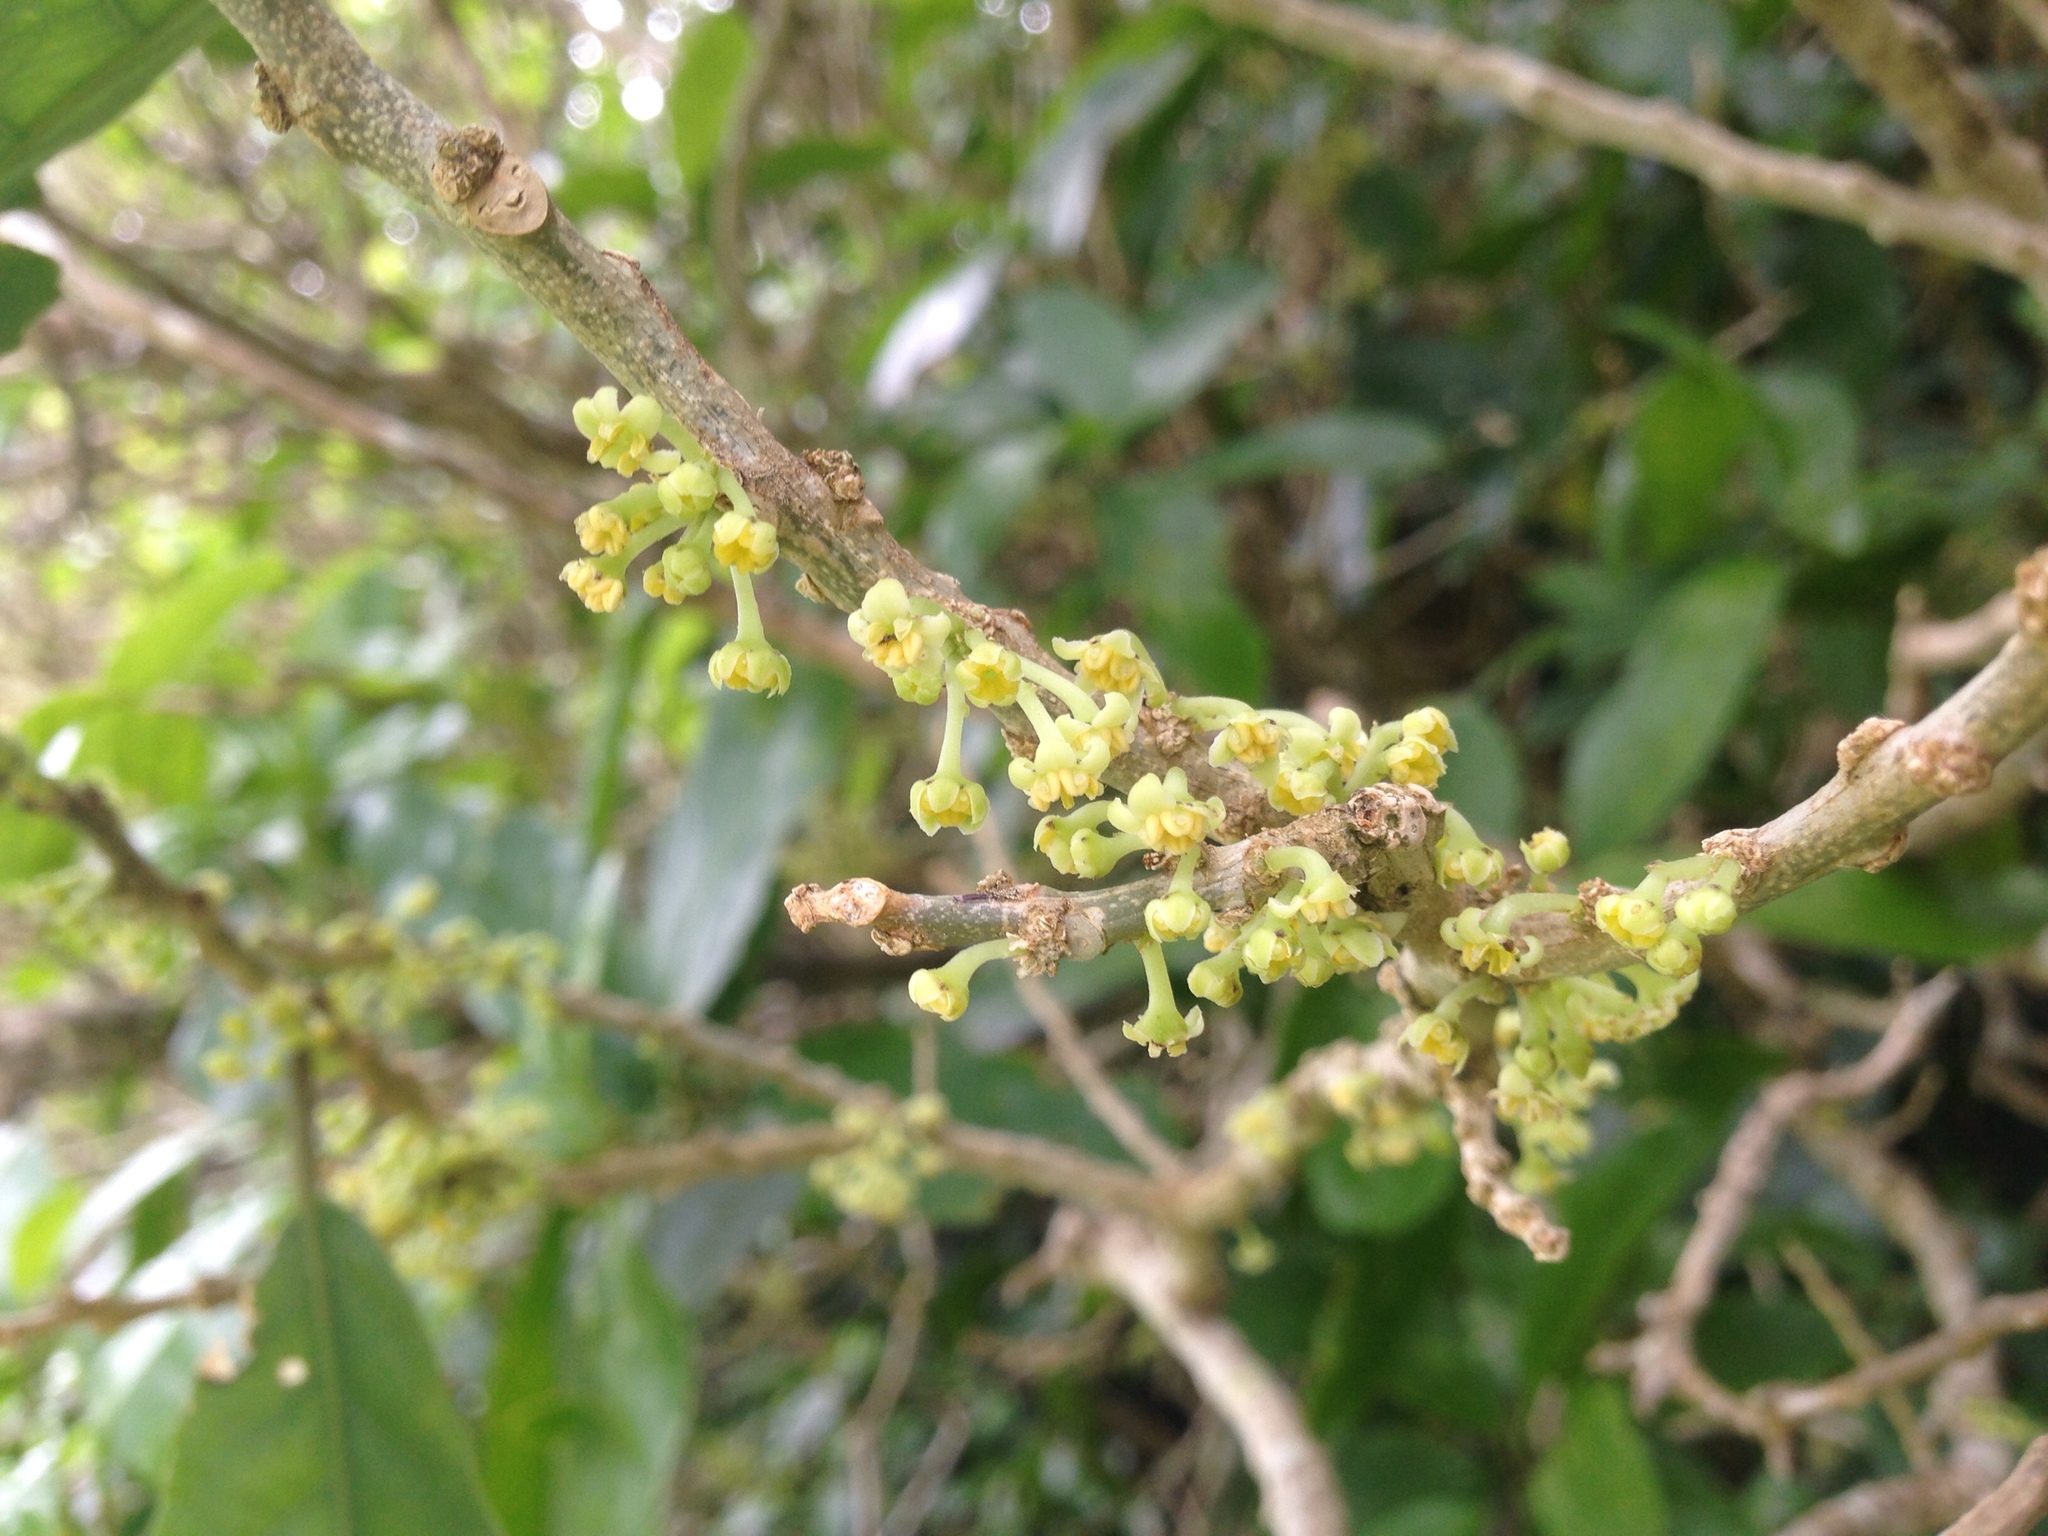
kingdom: Plantae
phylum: Tracheophyta
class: Magnoliopsida
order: Malpighiales
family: Violaceae
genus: Melicytus
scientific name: Melicytus ramiflorus
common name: Mahoe
